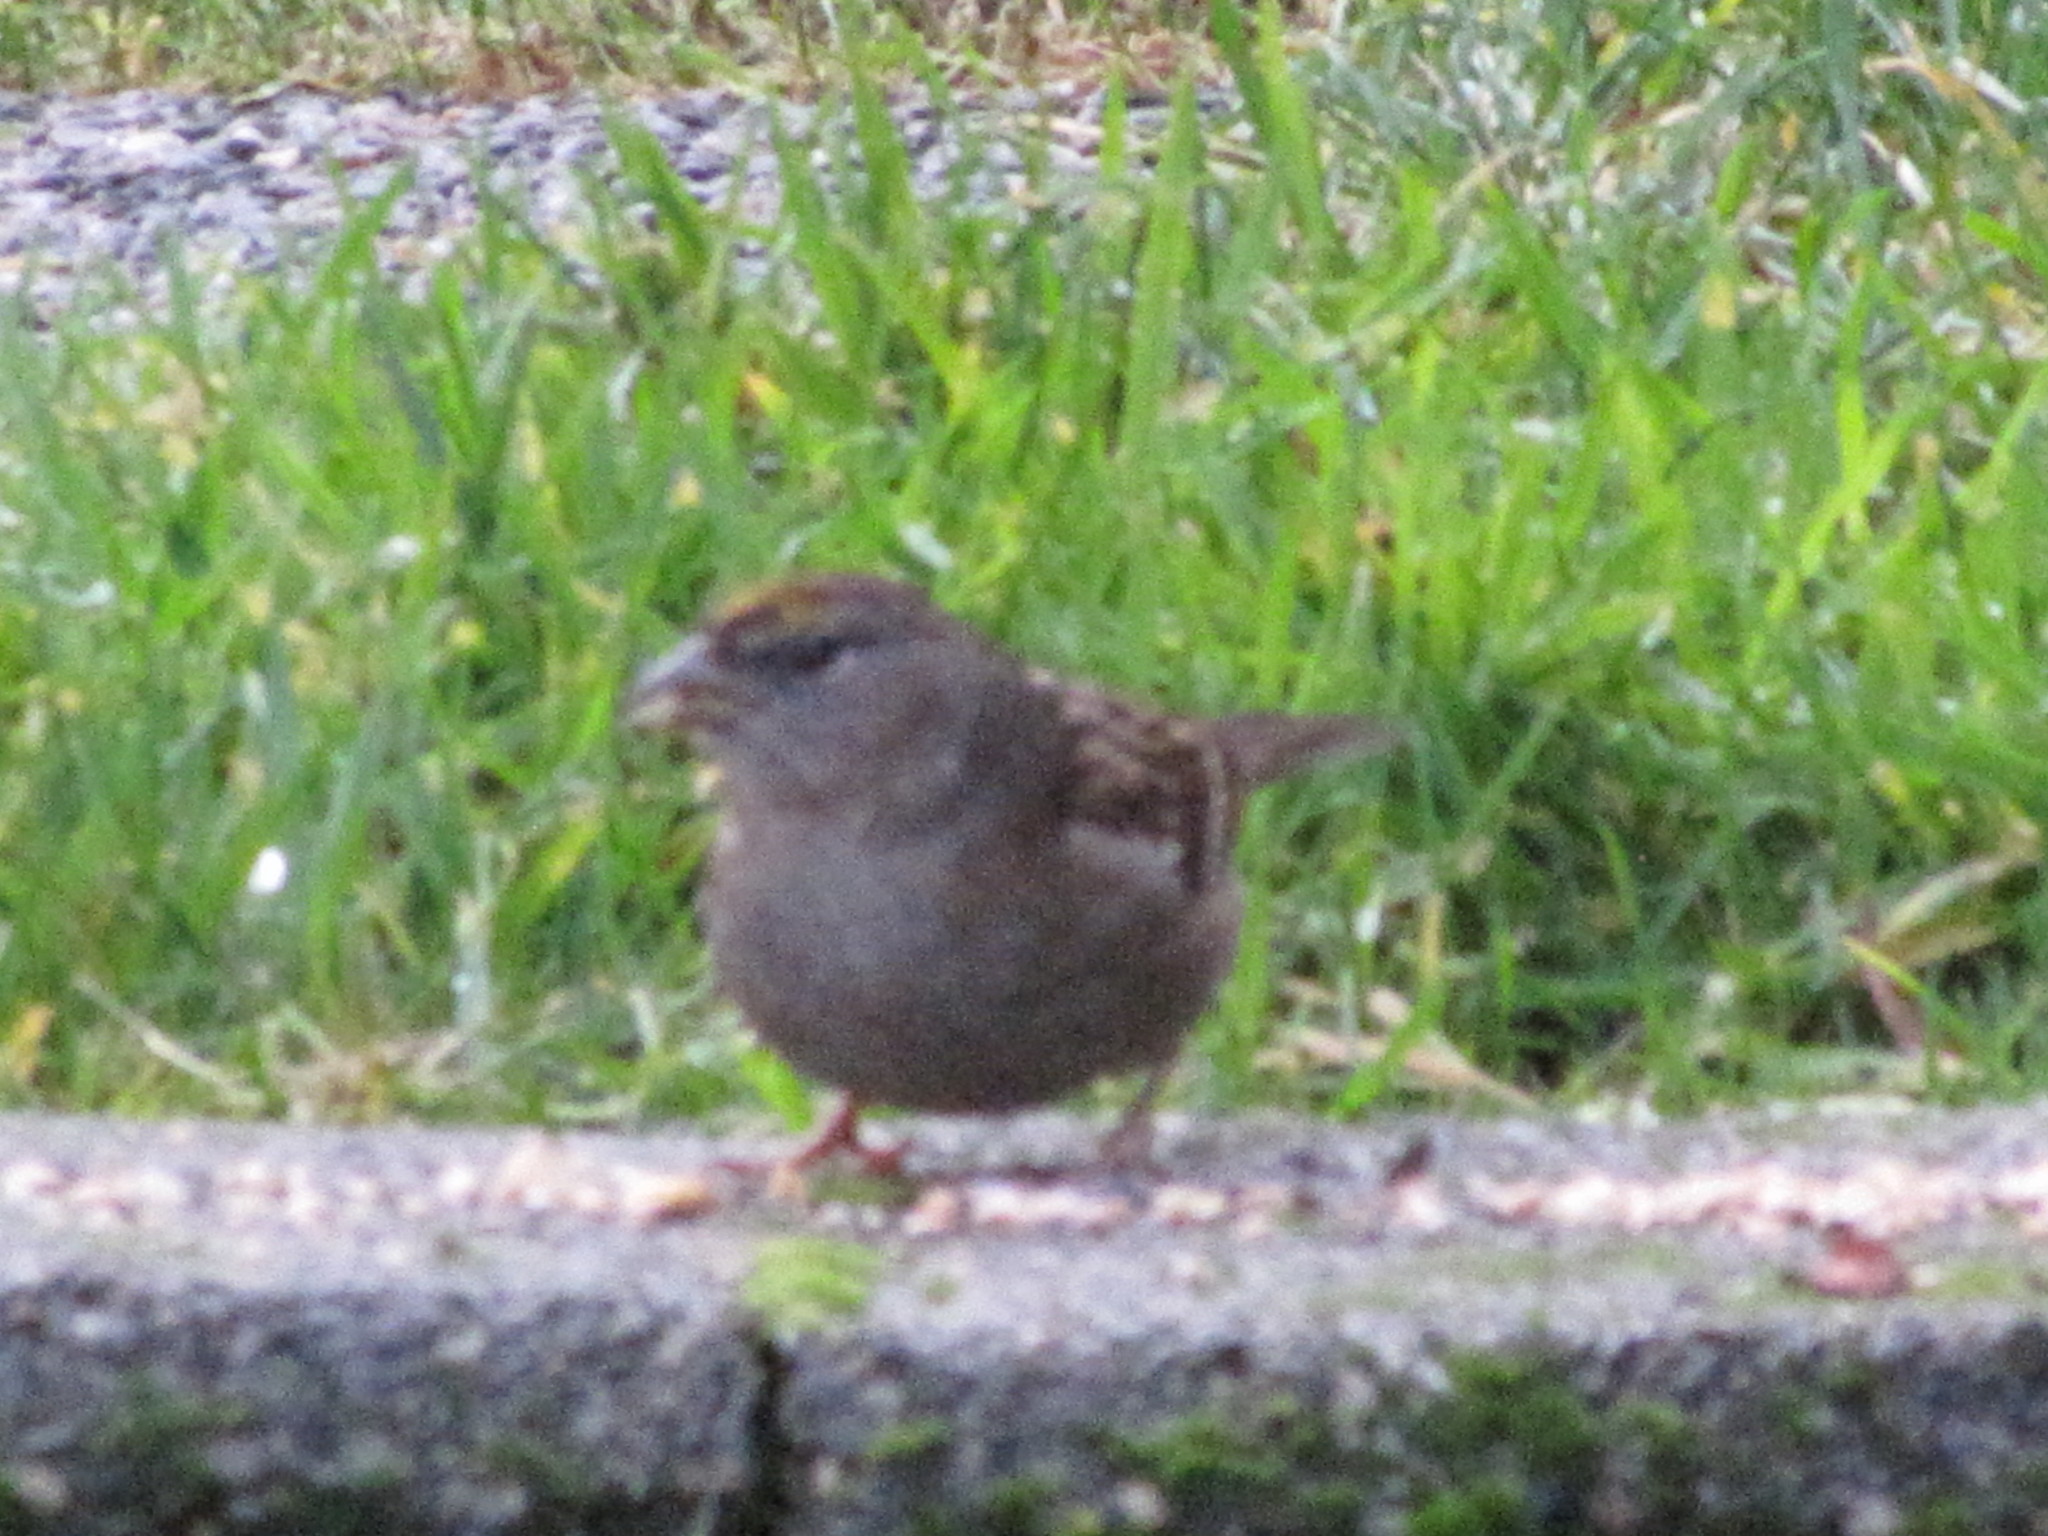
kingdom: Animalia
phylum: Chordata
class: Aves
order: Passeriformes
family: Passerellidae
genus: Zonotrichia
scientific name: Zonotrichia atricapilla
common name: Golden-crowned sparrow
